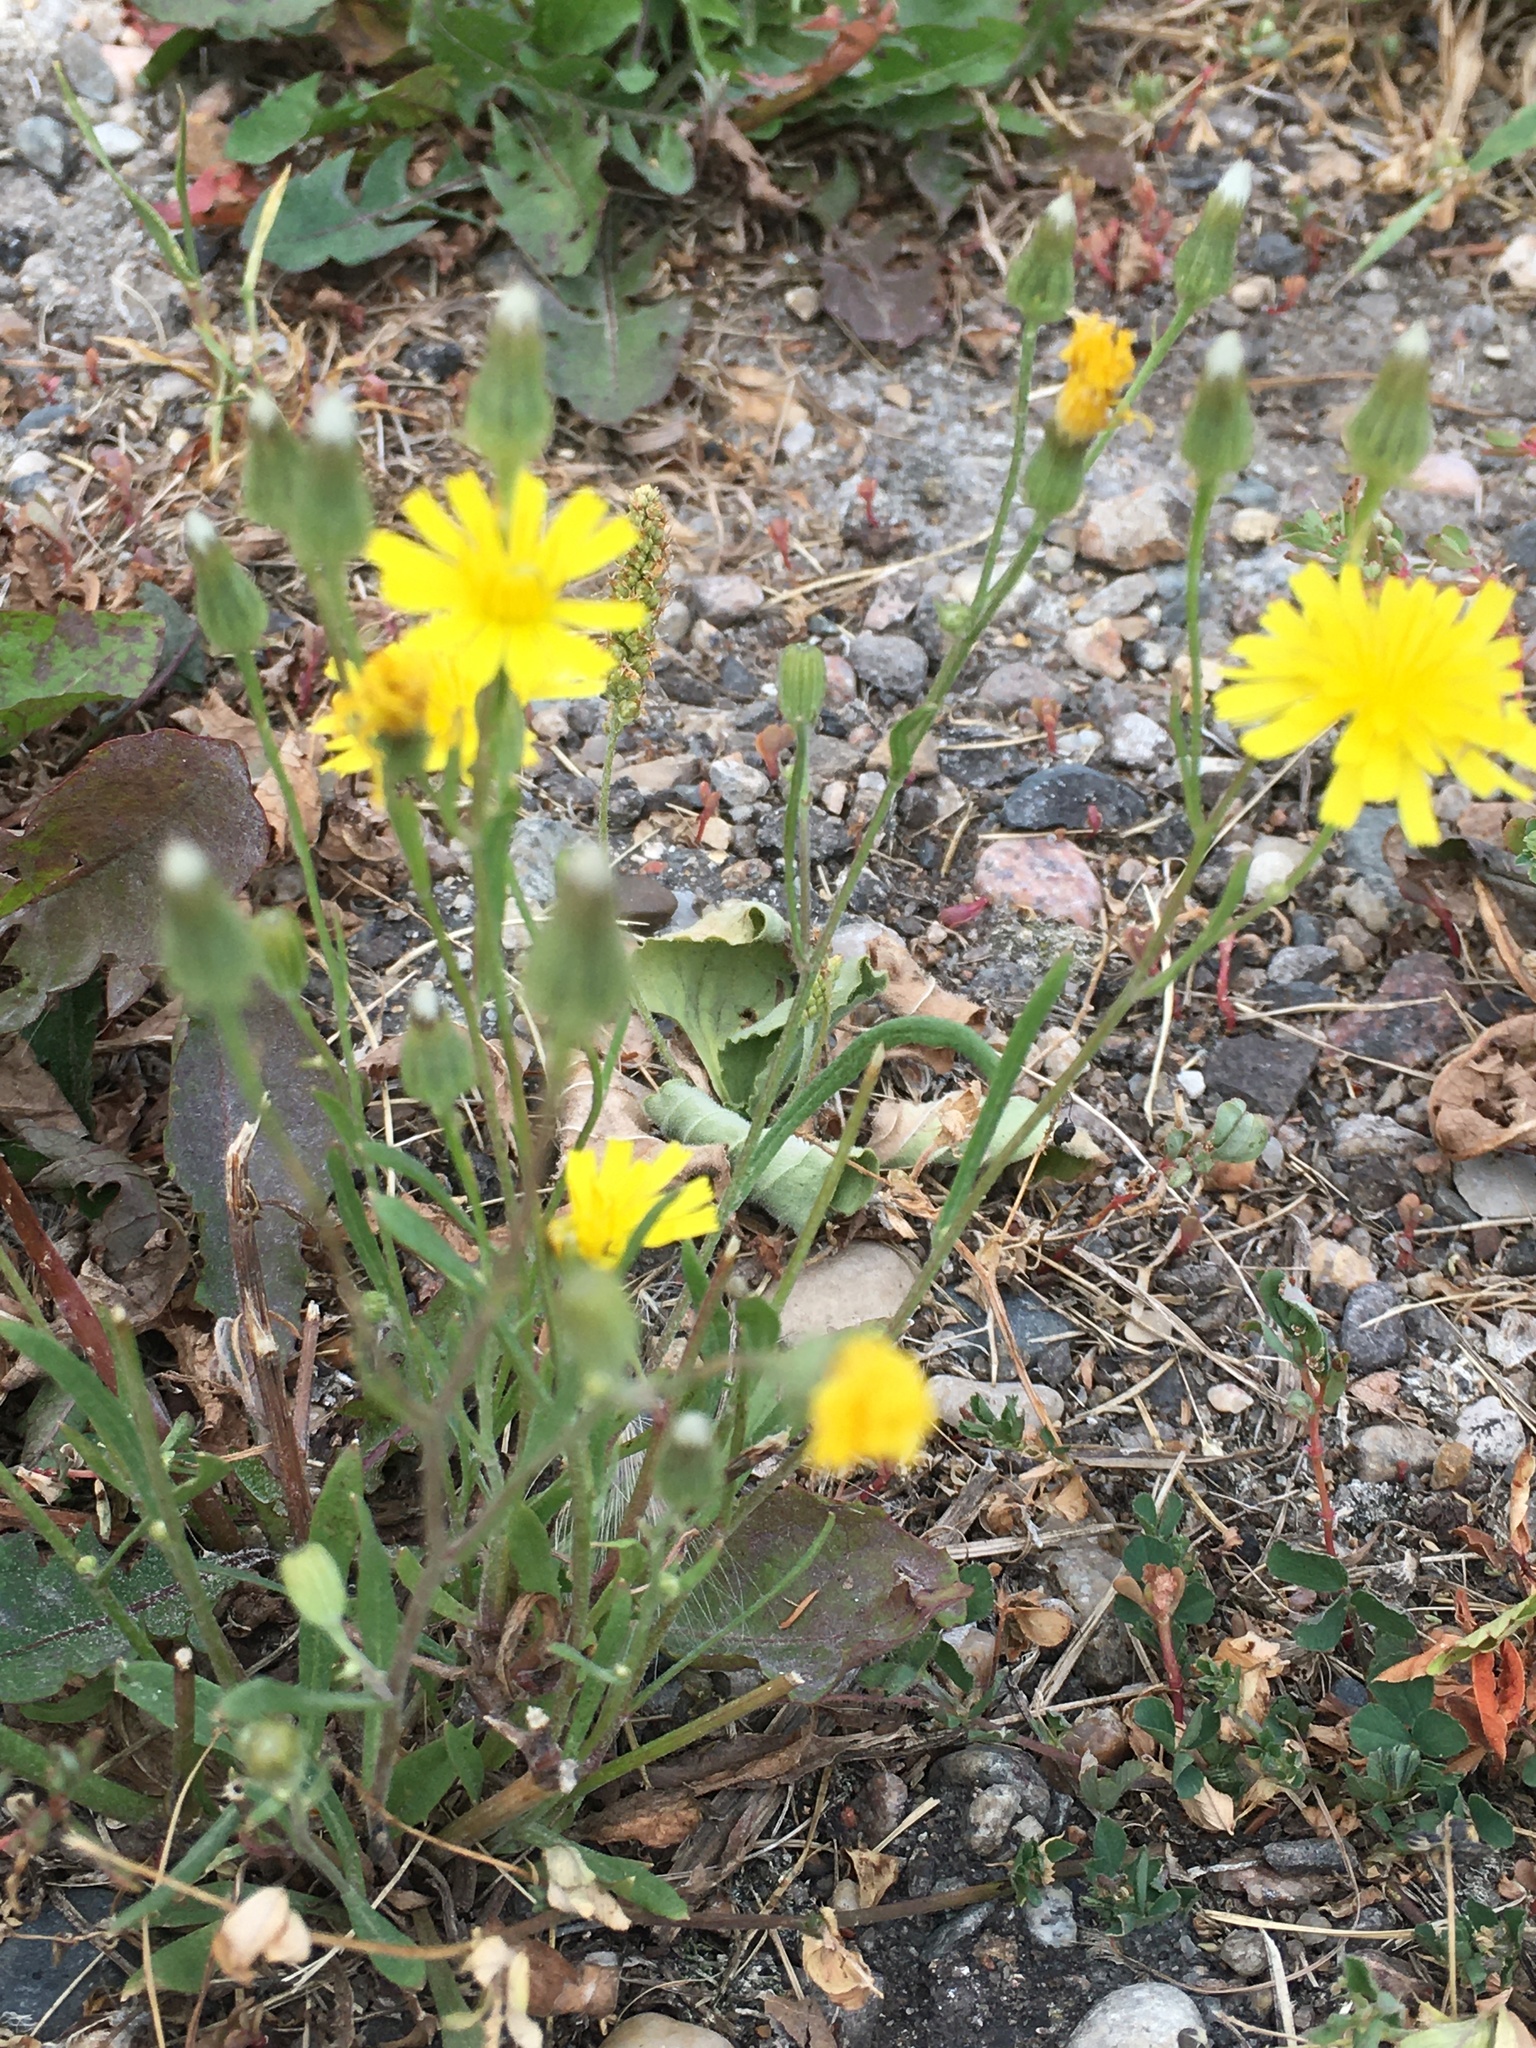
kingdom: Plantae
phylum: Tracheophyta
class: Magnoliopsida
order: Asterales
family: Asteraceae
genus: Crepis
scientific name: Crepis tectorum
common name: Narrow-leaved hawk's-beard
